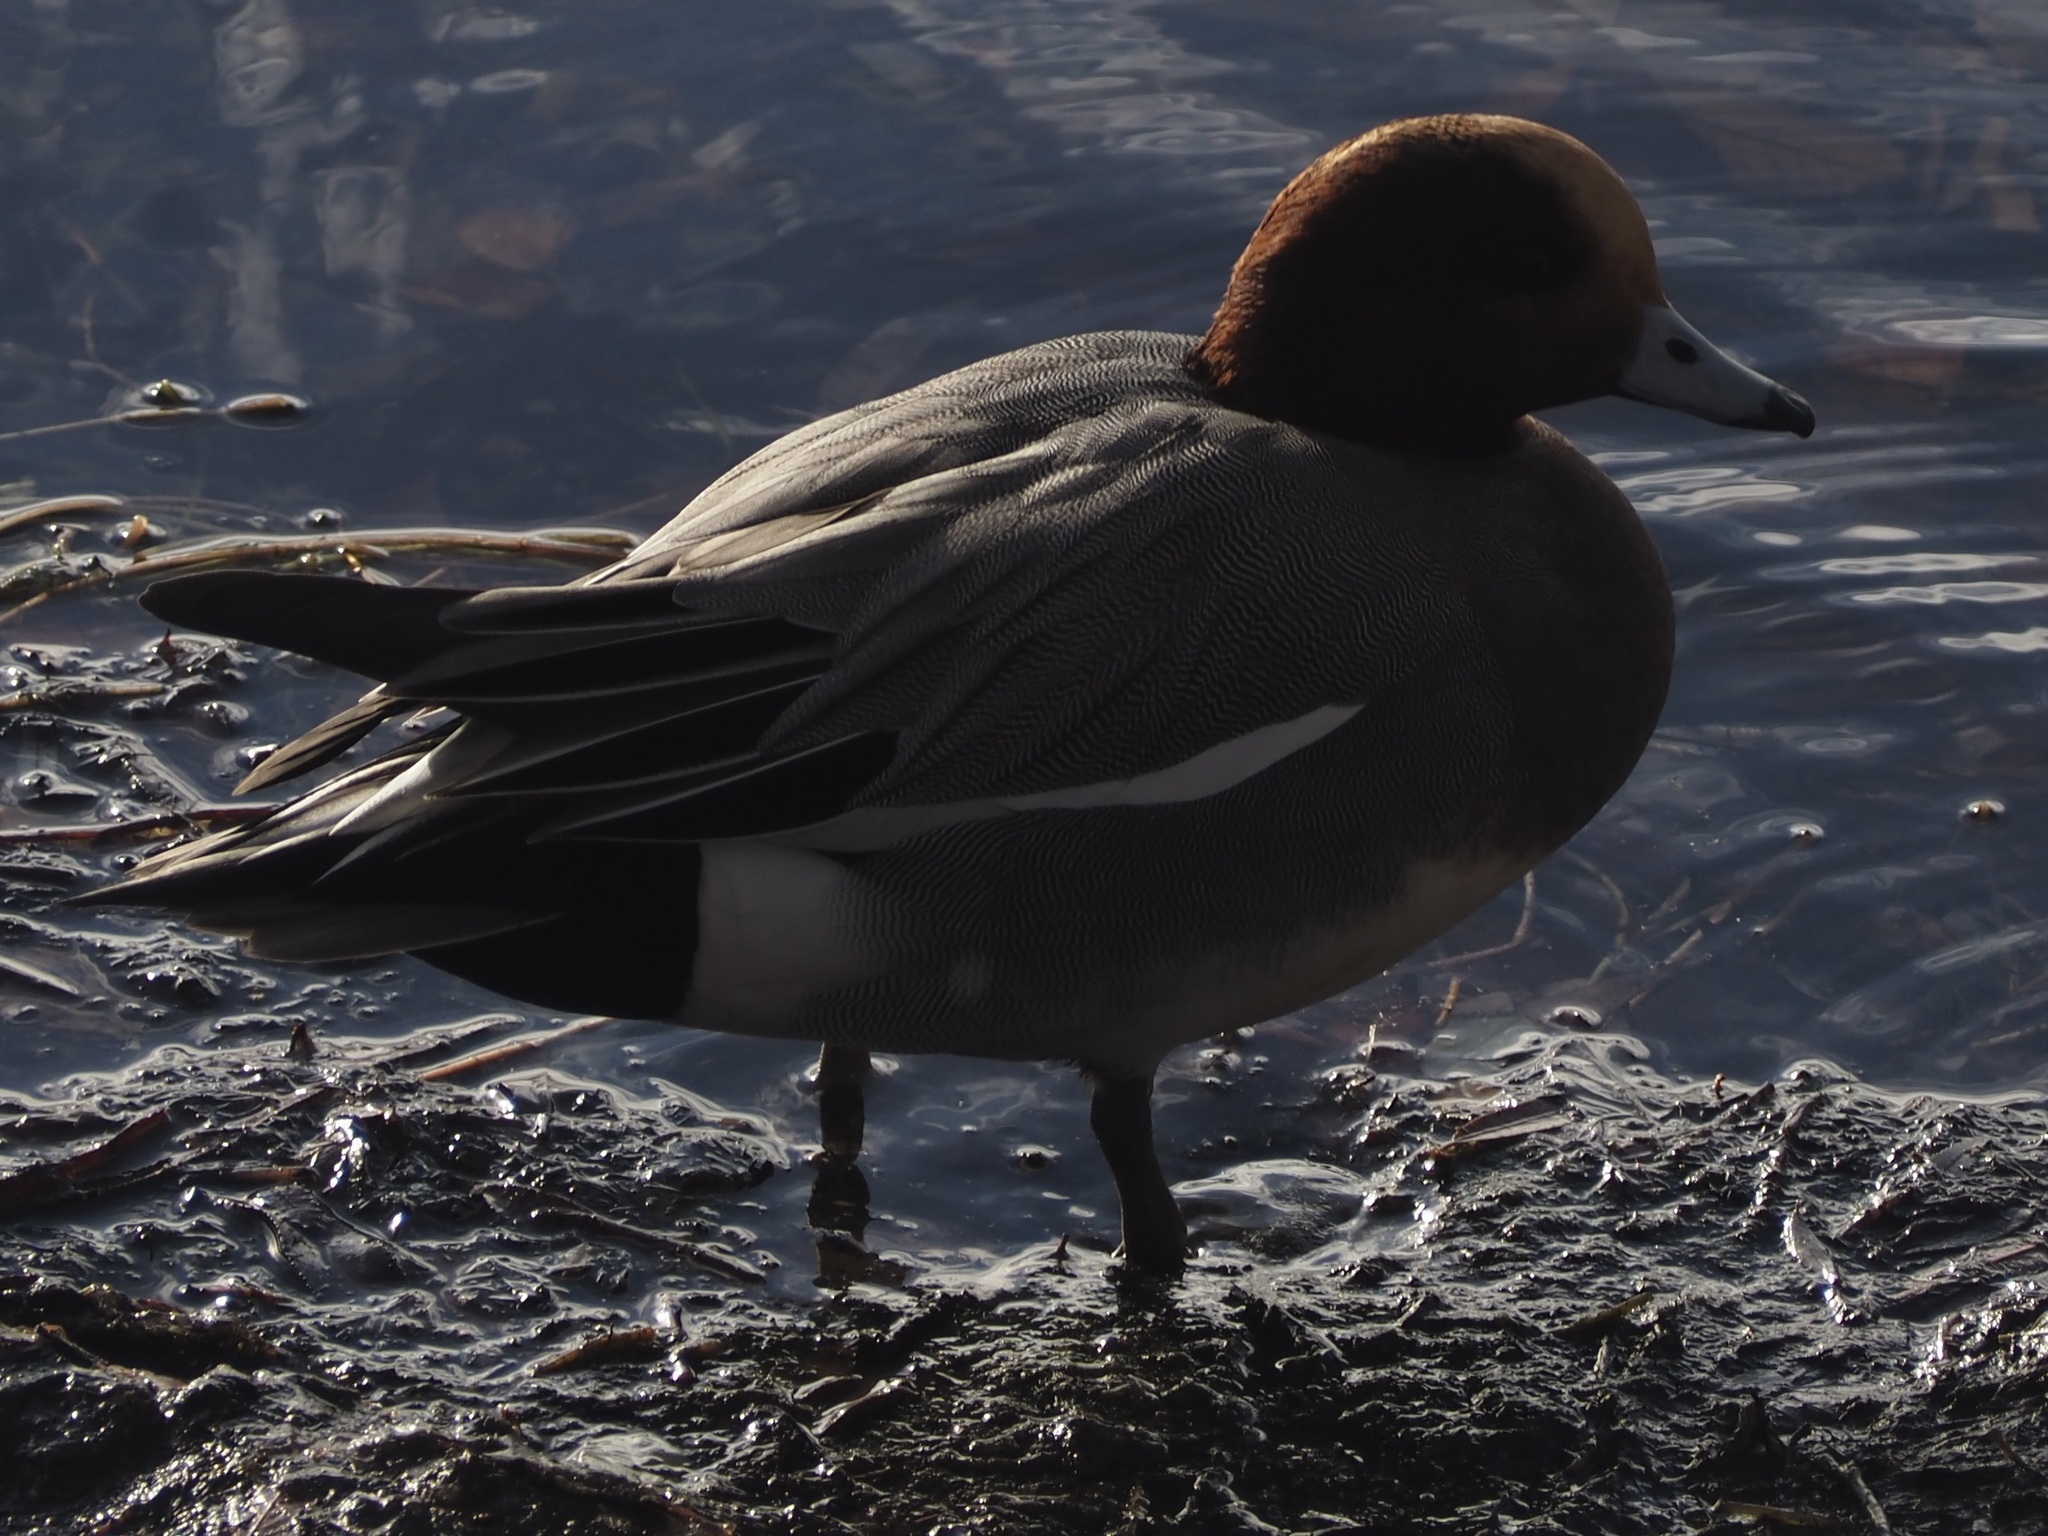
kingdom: Animalia
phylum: Chordata
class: Aves
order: Anseriformes
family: Anatidae
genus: Mareca
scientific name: Mareca penelope
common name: Eurasian wigeon
